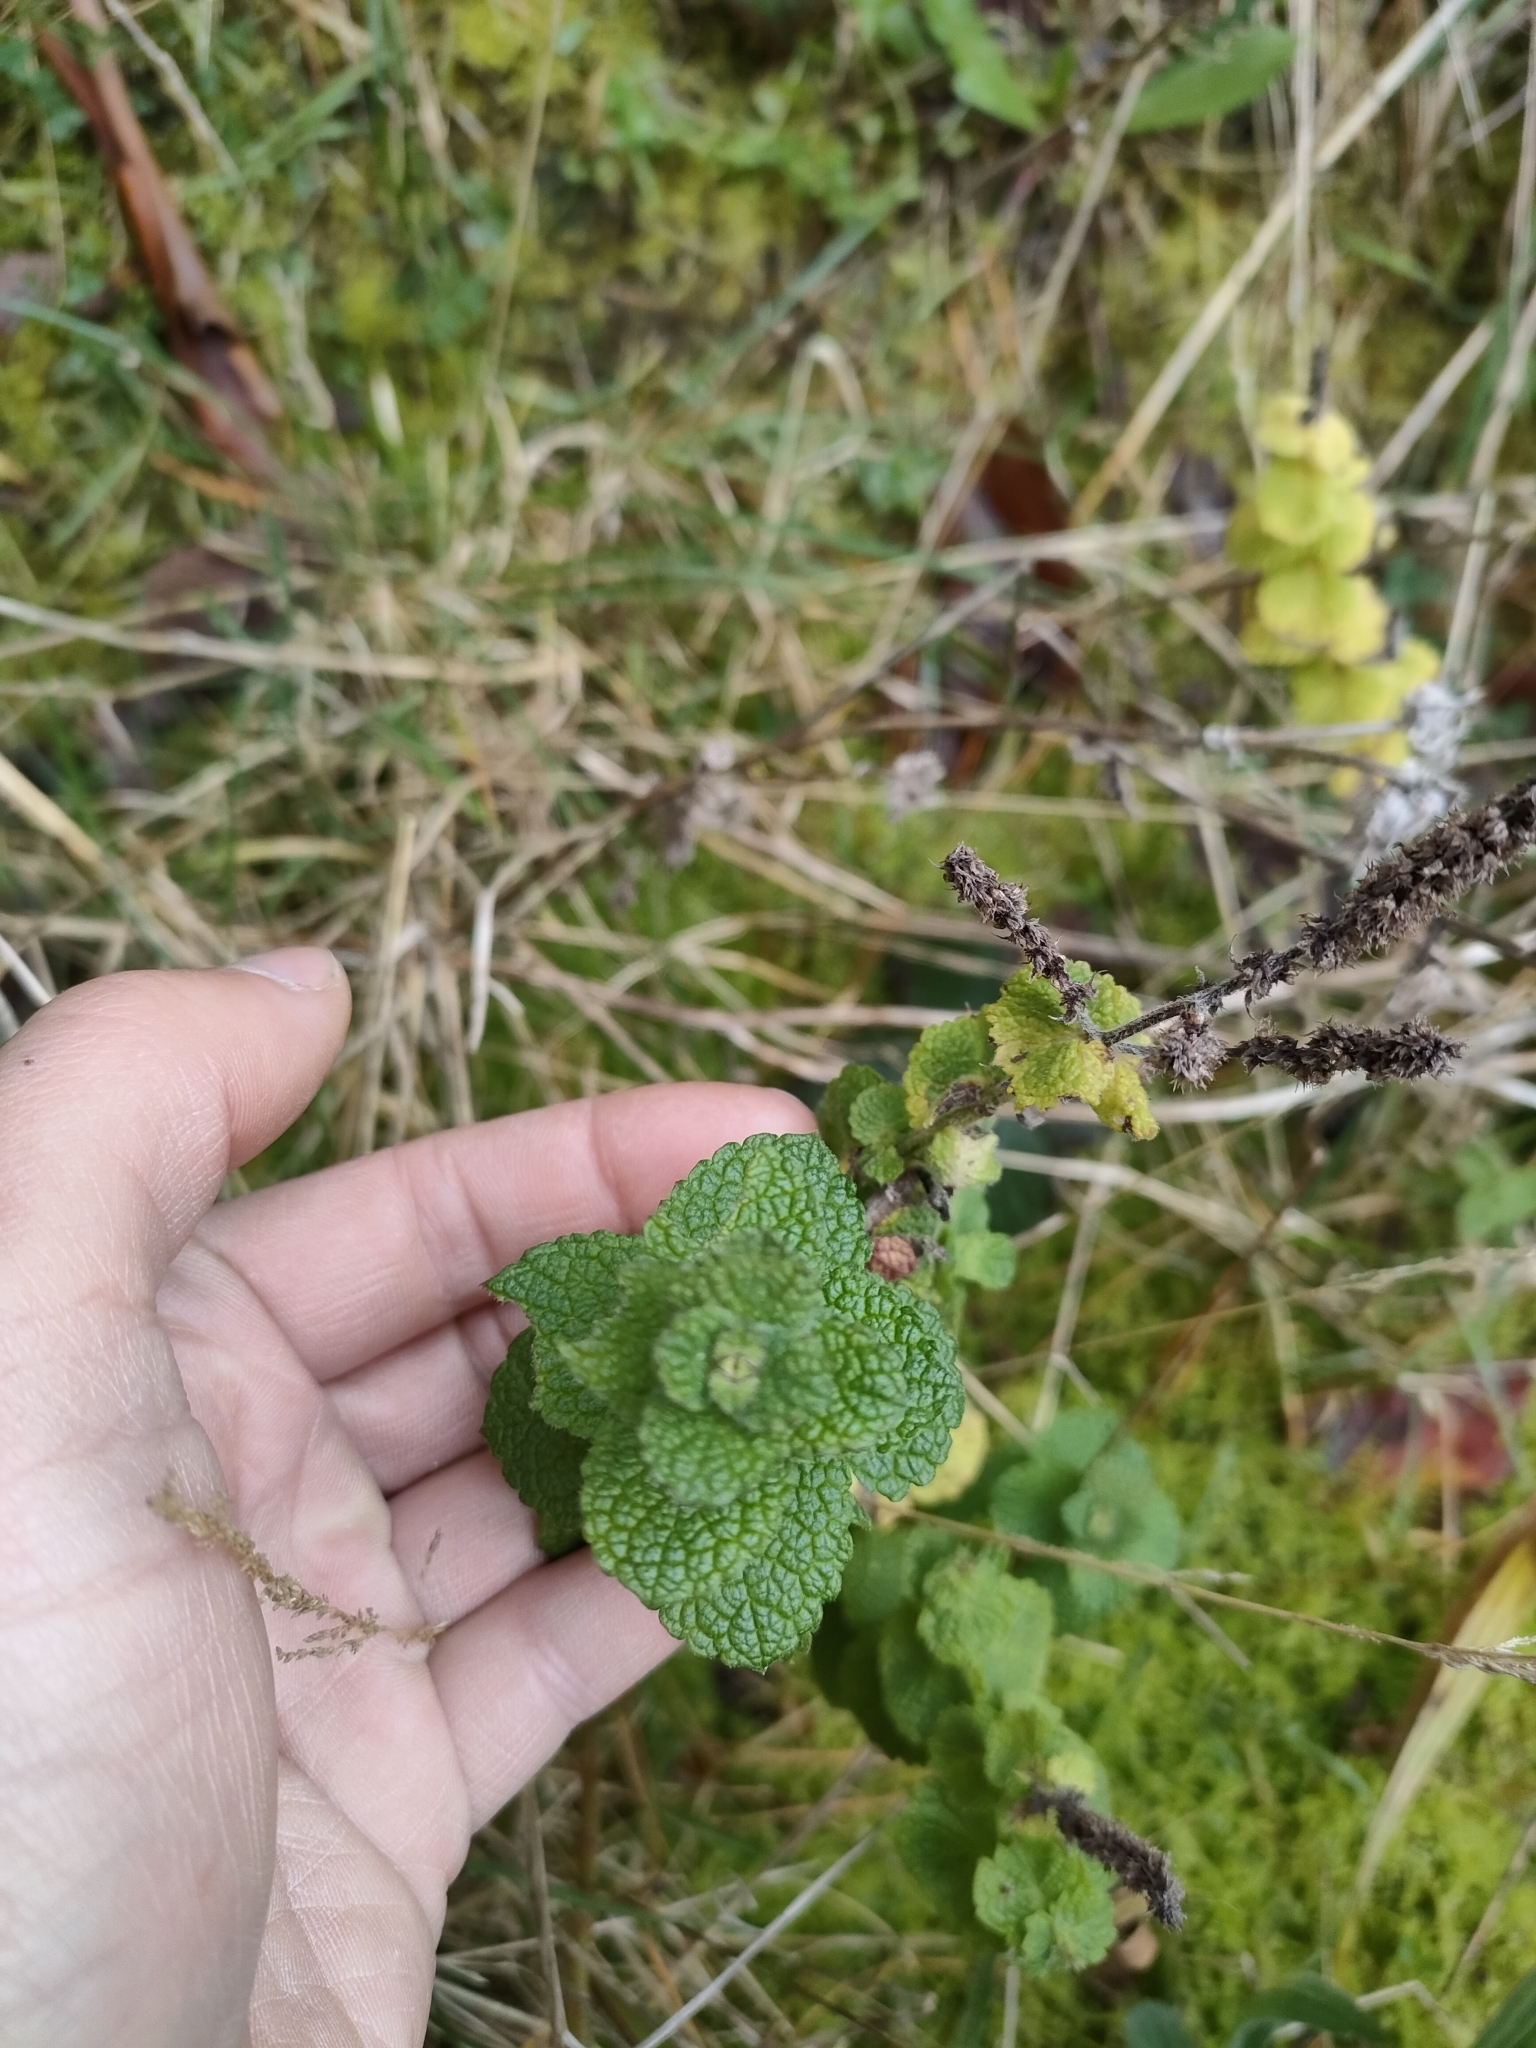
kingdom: Plantae
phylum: Tracheophyta
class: Magnoliopsida
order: Lamiales
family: Lamiaceae
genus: Mentha
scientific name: Mentha suaveolens
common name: Apple mint
